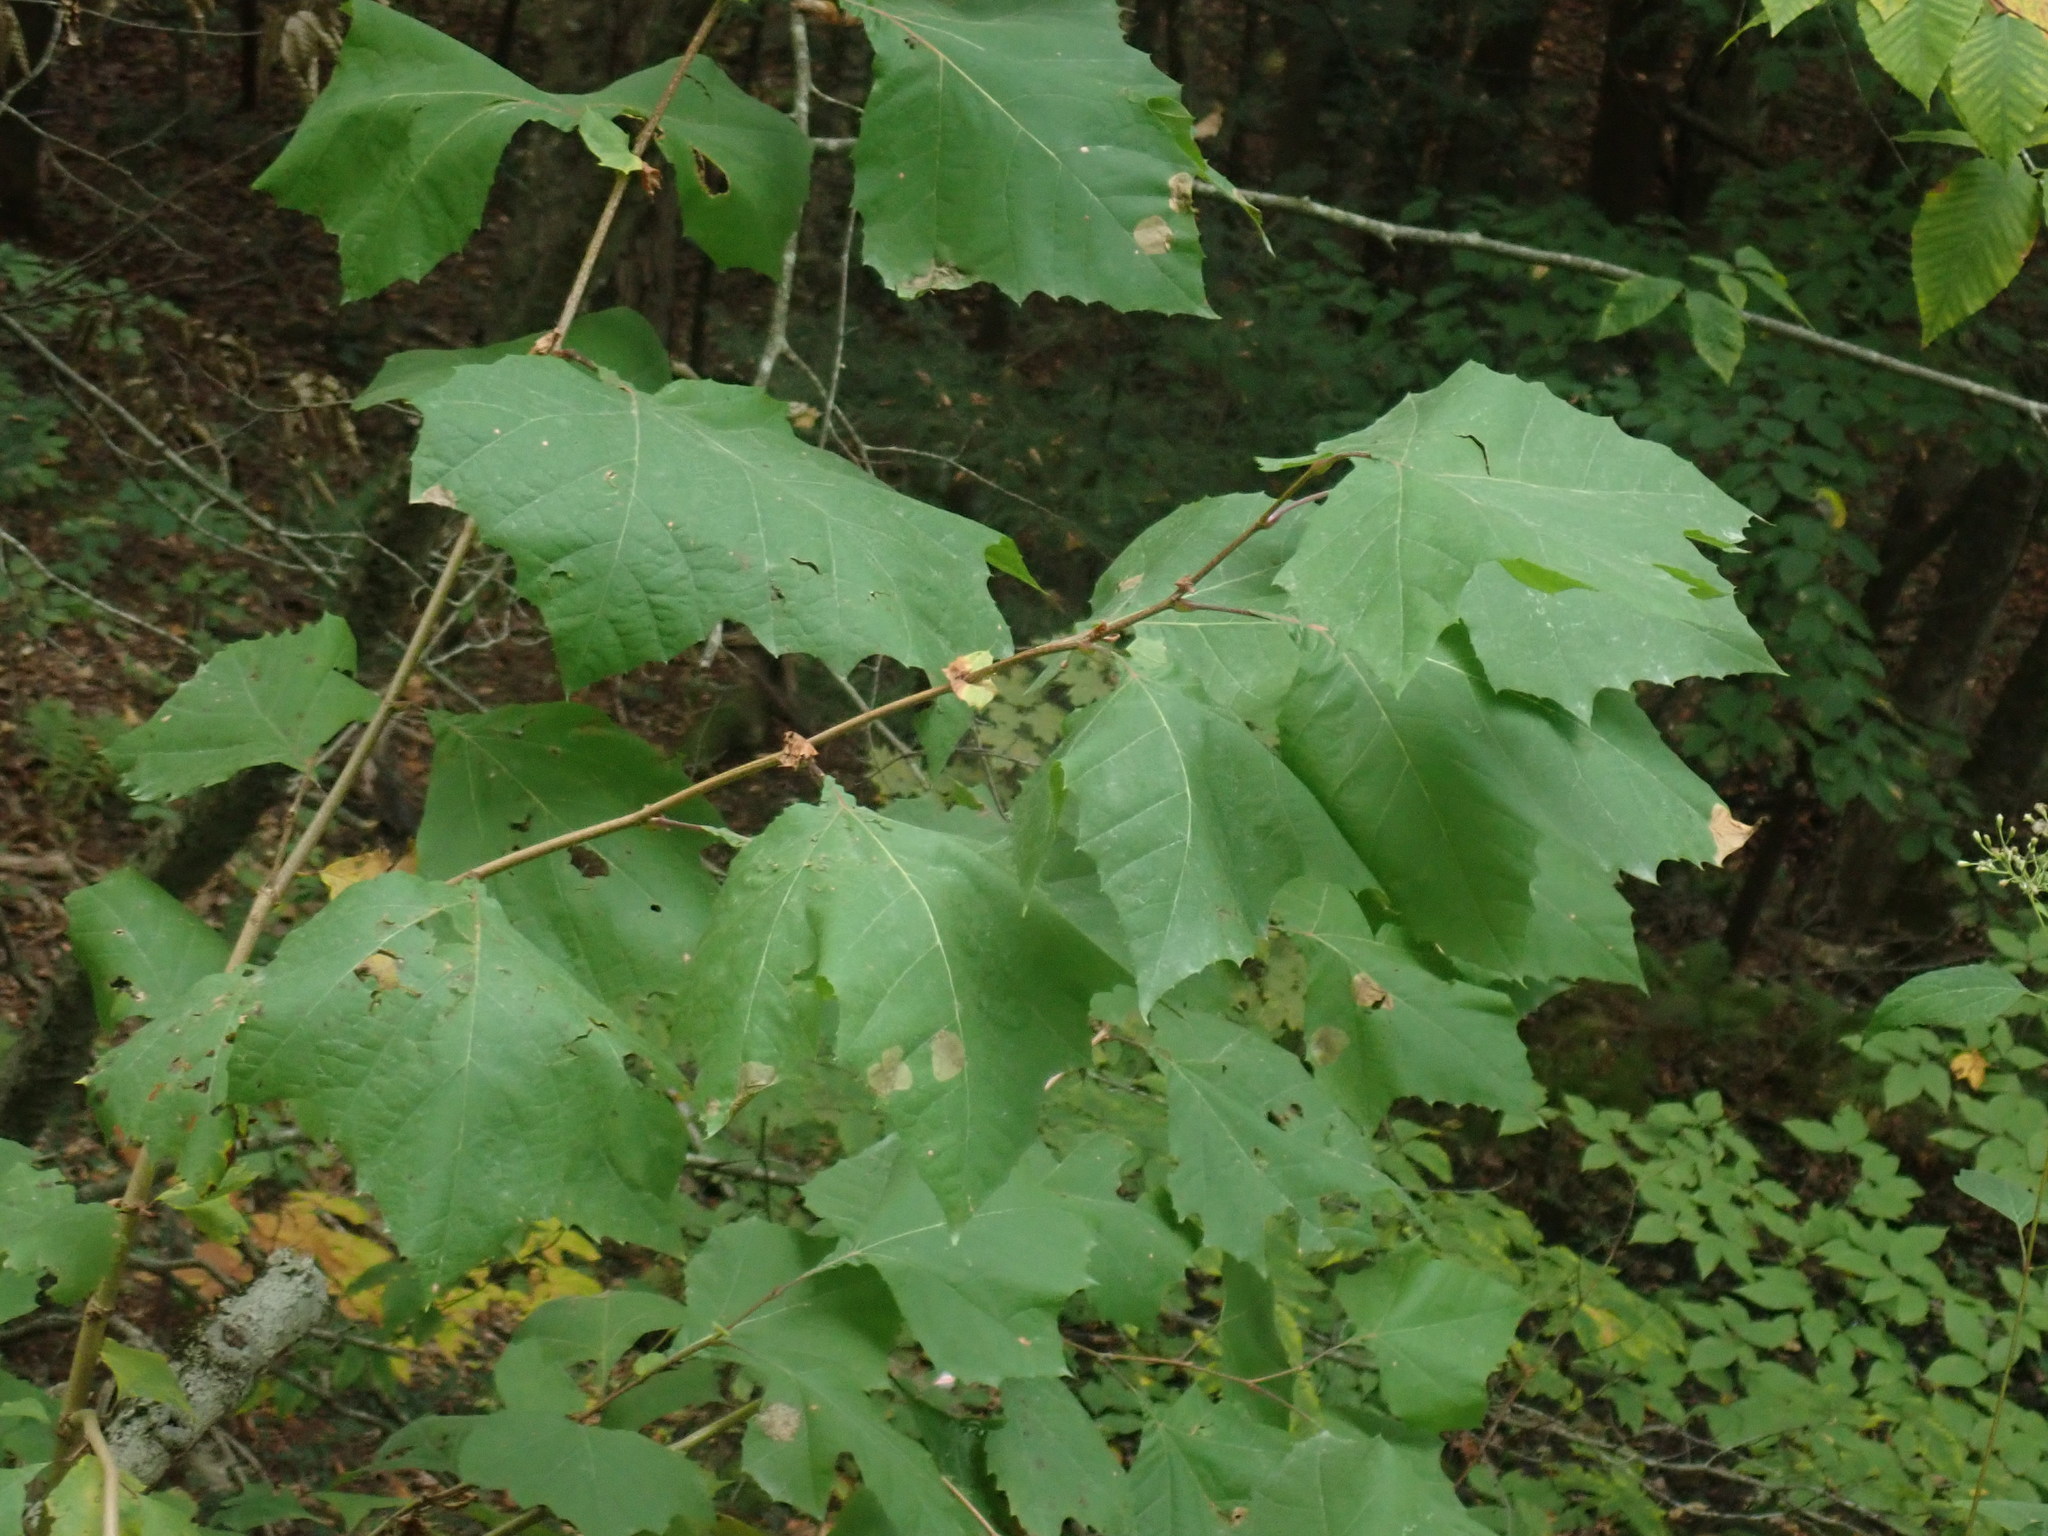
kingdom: Plantae
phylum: Tracheophyta
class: Magnoliopsida
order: Proteales
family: Platanaceae
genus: Platanus
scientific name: Platanus occidentalis
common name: American sycamore
